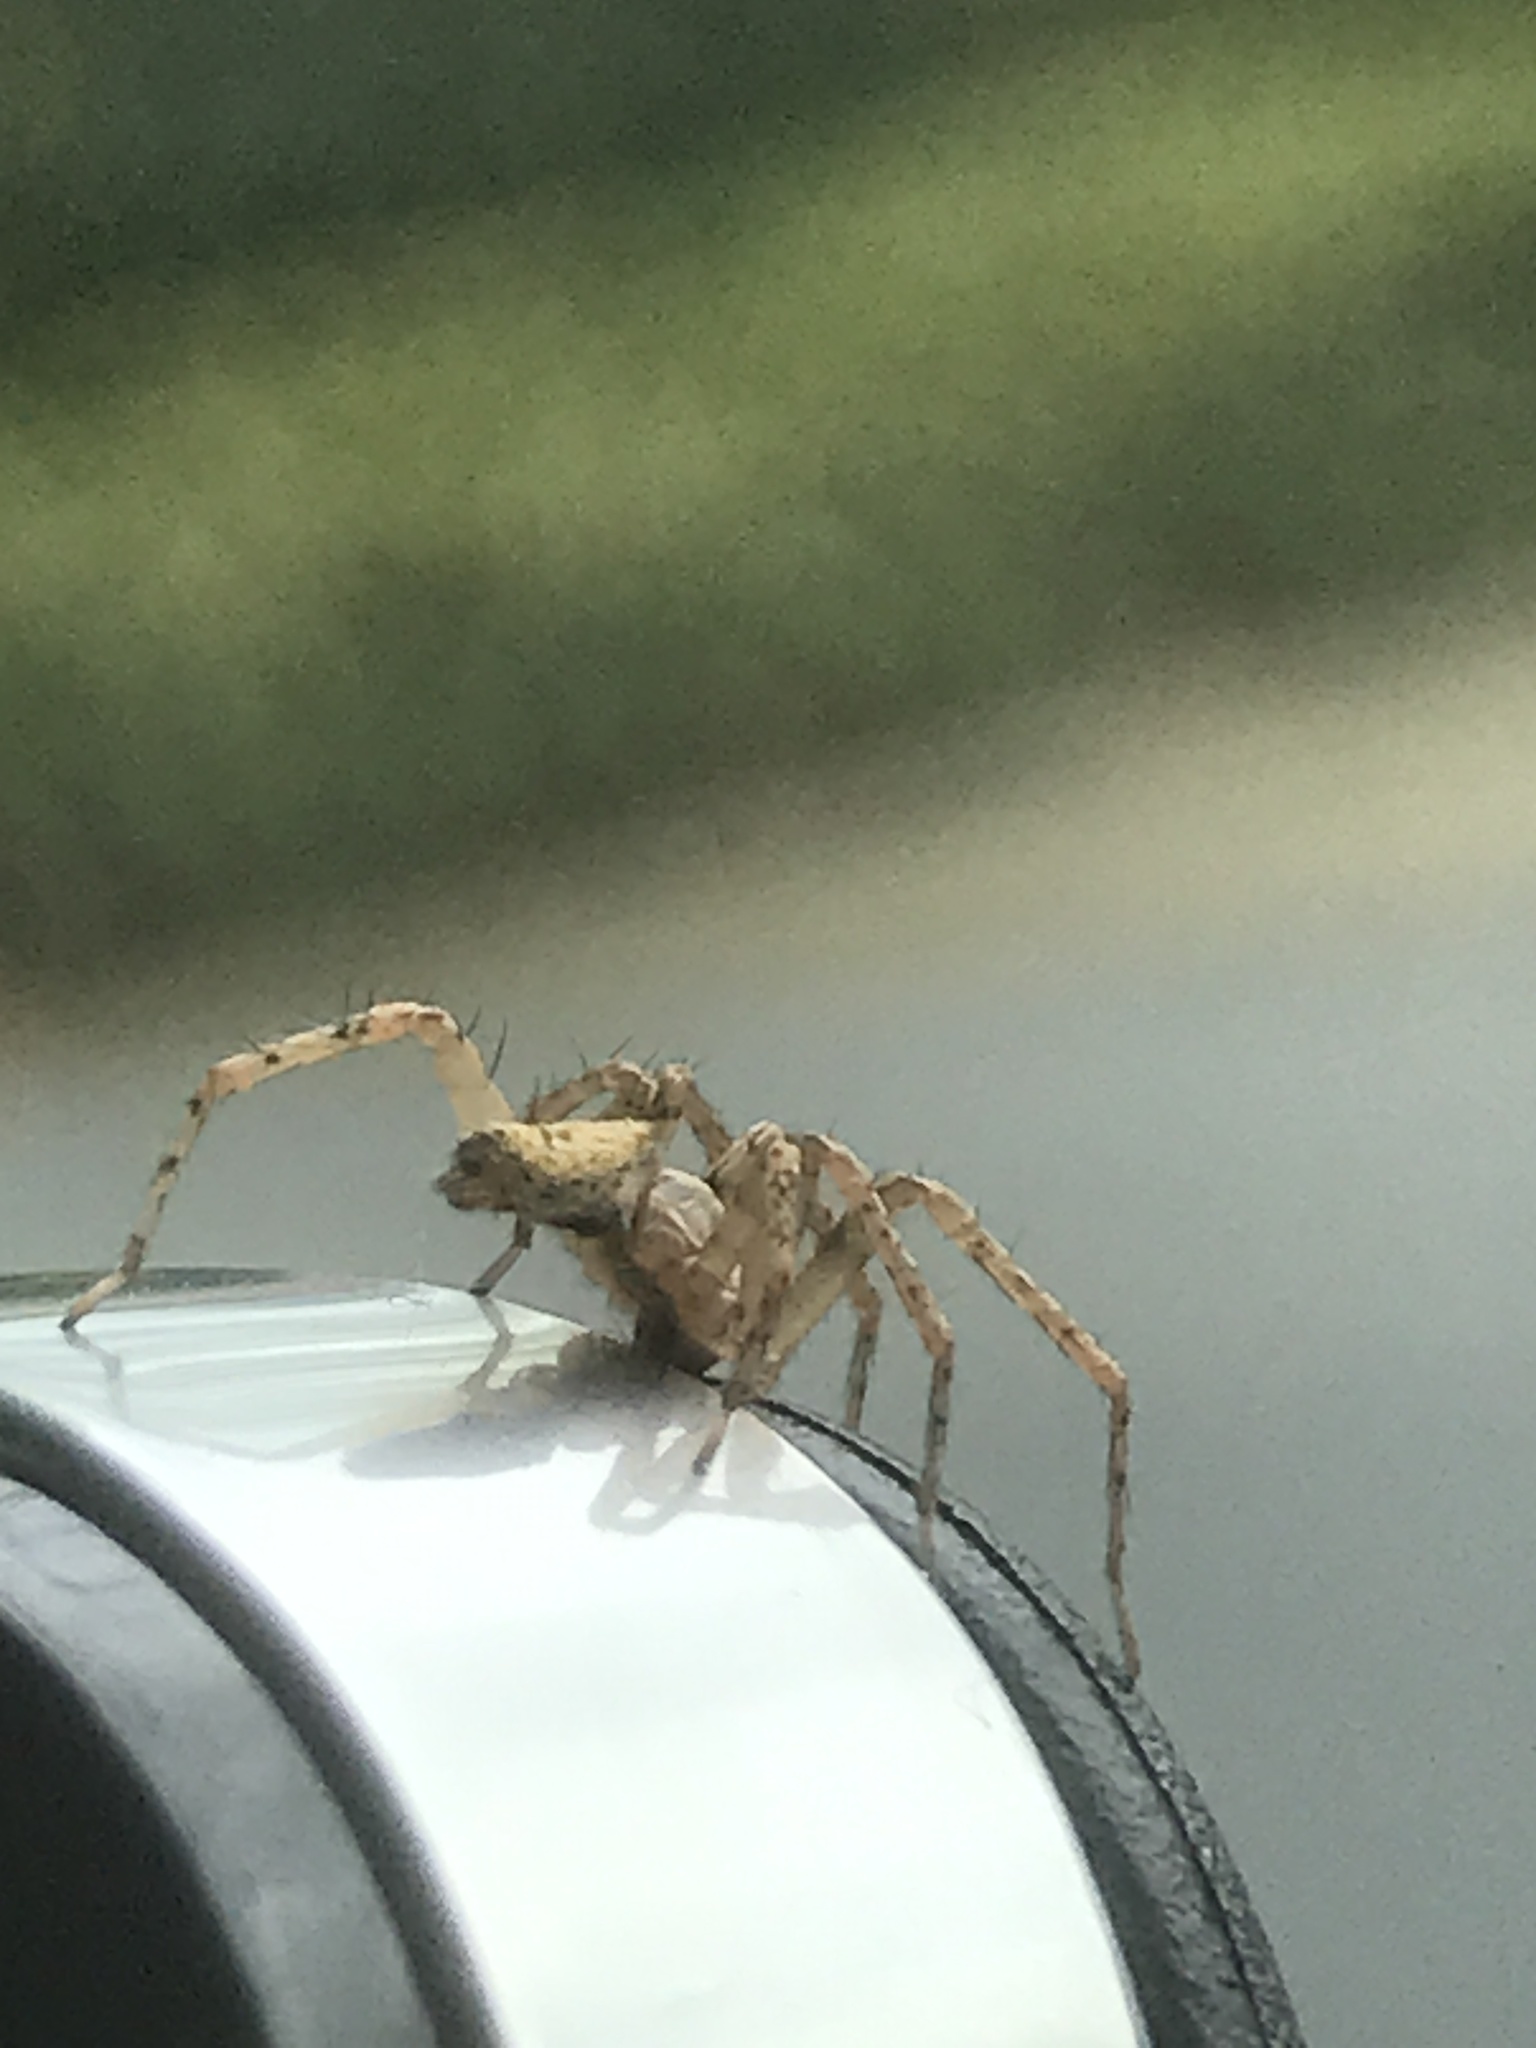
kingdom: Animalia
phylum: Arthropoda
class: Arachnida
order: Araneae
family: Anyphaenidae
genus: Anyphaena
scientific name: Anyphaena accentuata
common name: Buzzing spider
